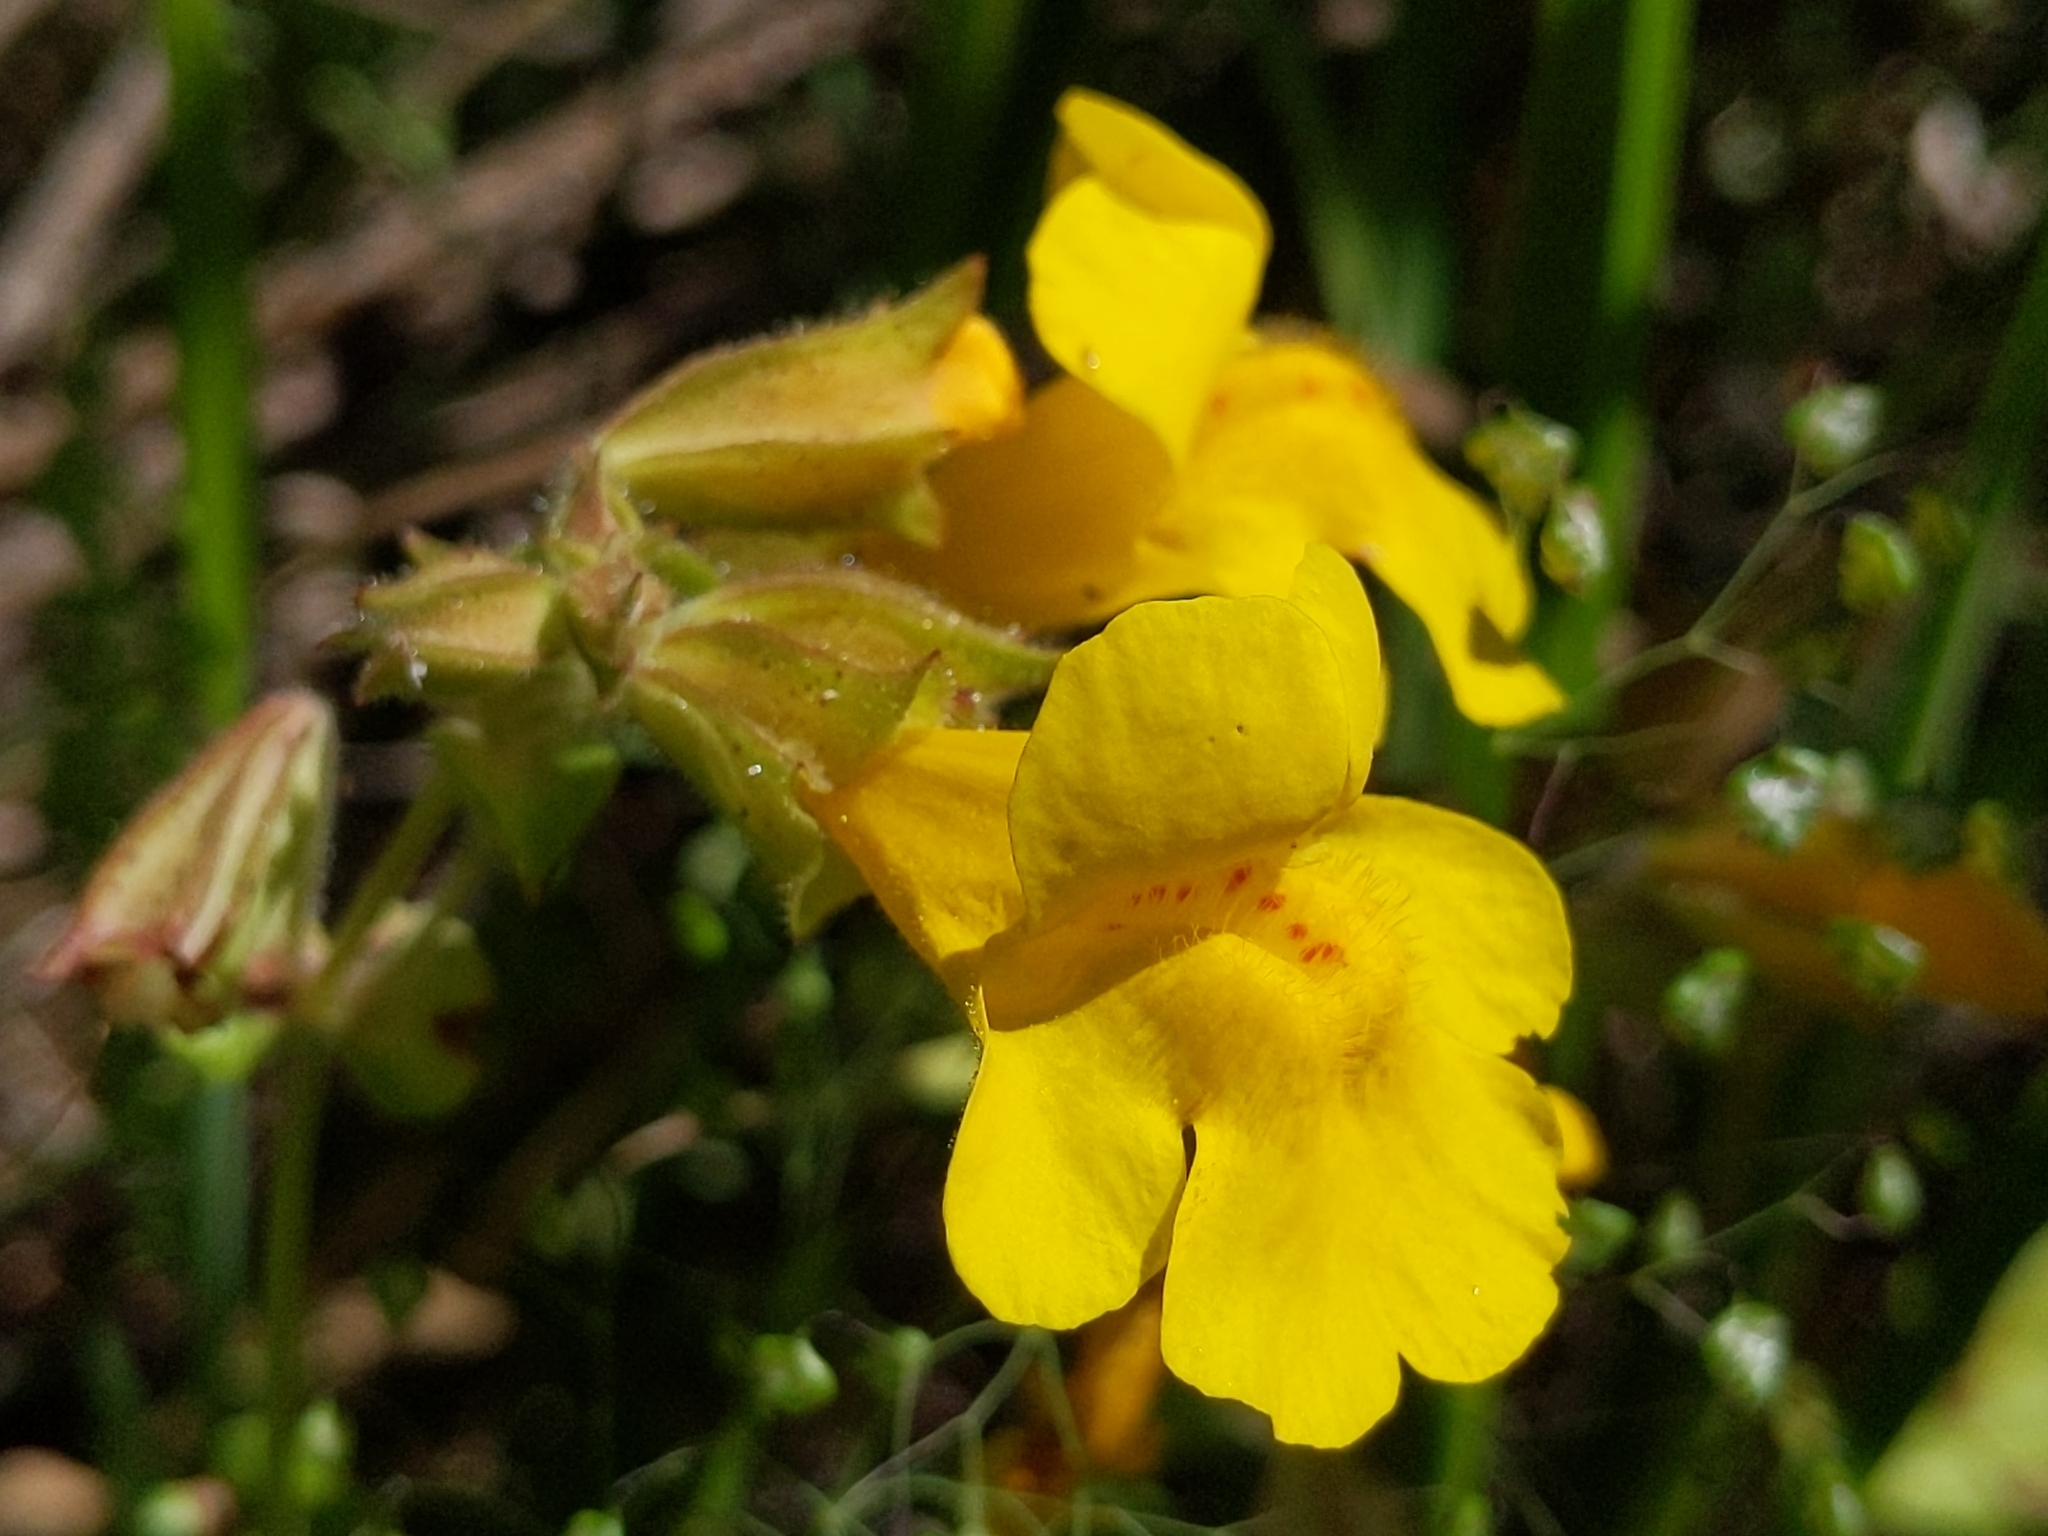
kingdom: Plantae
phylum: Tracheophyta
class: Magnoliopsida
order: Lamiales
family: Phrymaceae
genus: Erythranthe
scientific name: Erythranthe guttata
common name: Monkeyflower
